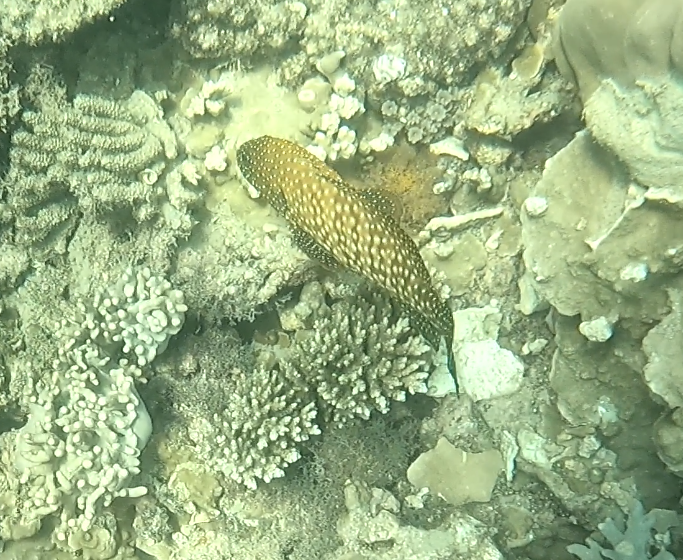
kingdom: Animalia
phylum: Chordata
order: Perciformes
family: Serranidae
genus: Cephalopholis
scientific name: Cephalopholis cyanostigma
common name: Bluespotted hind
